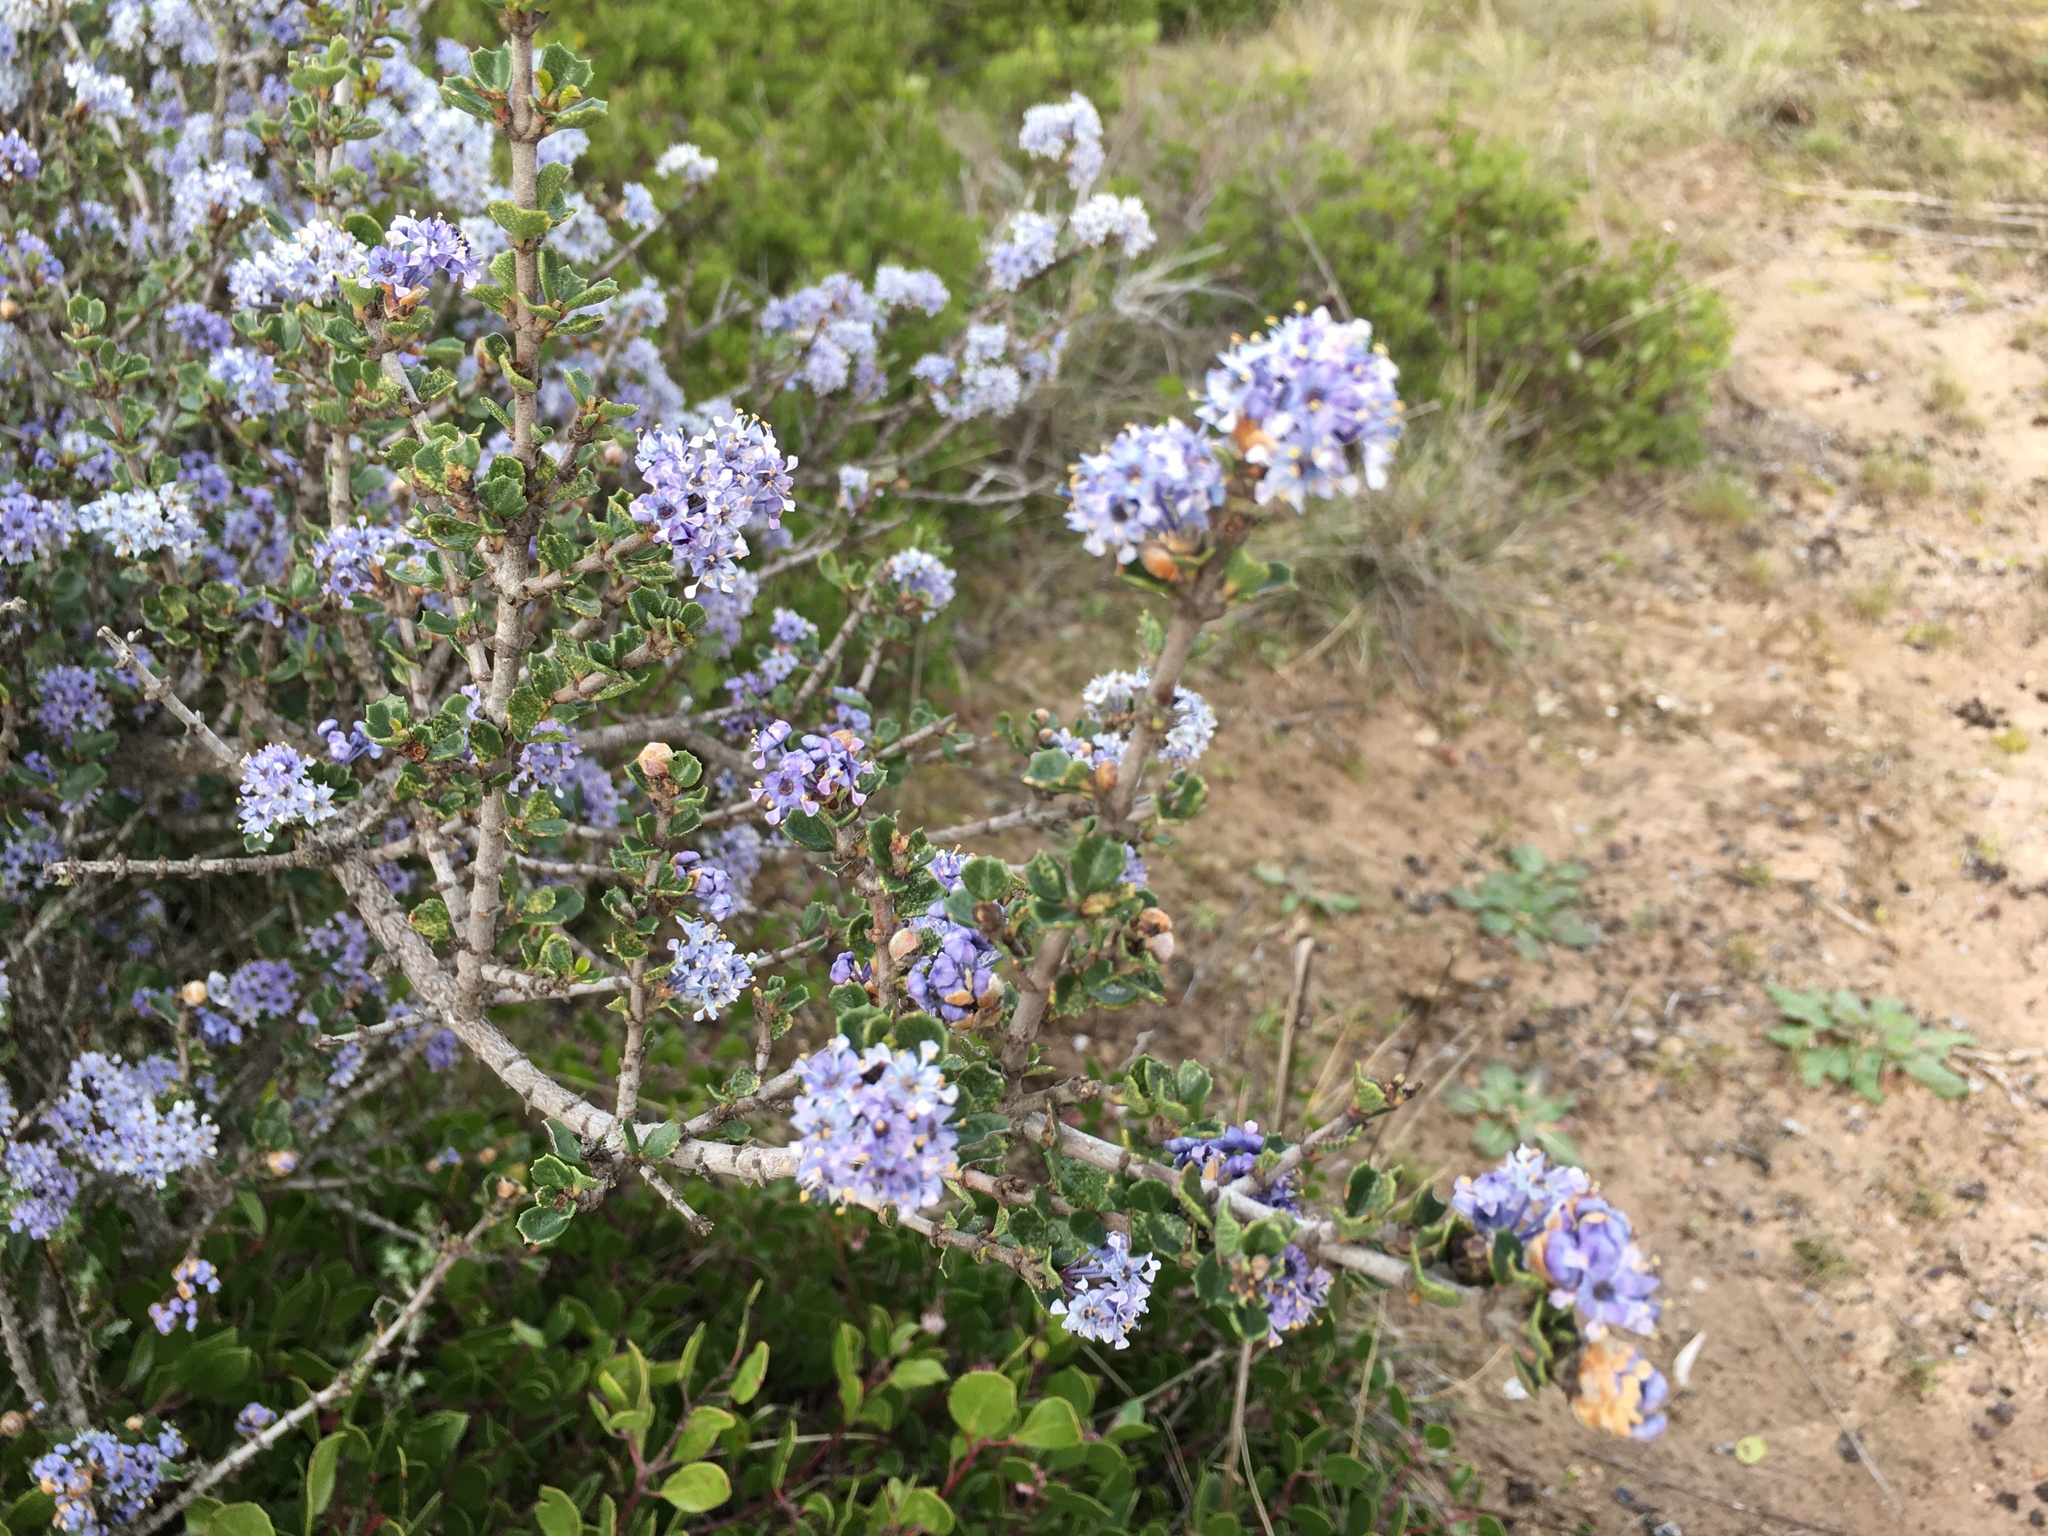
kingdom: Plantae
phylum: Tracheophyta
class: Magnoliopsida
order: Rosales
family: Rhamnaceae
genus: Ceanothus
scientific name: Ceanothus cuneatus
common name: Cuneate ceanothus
